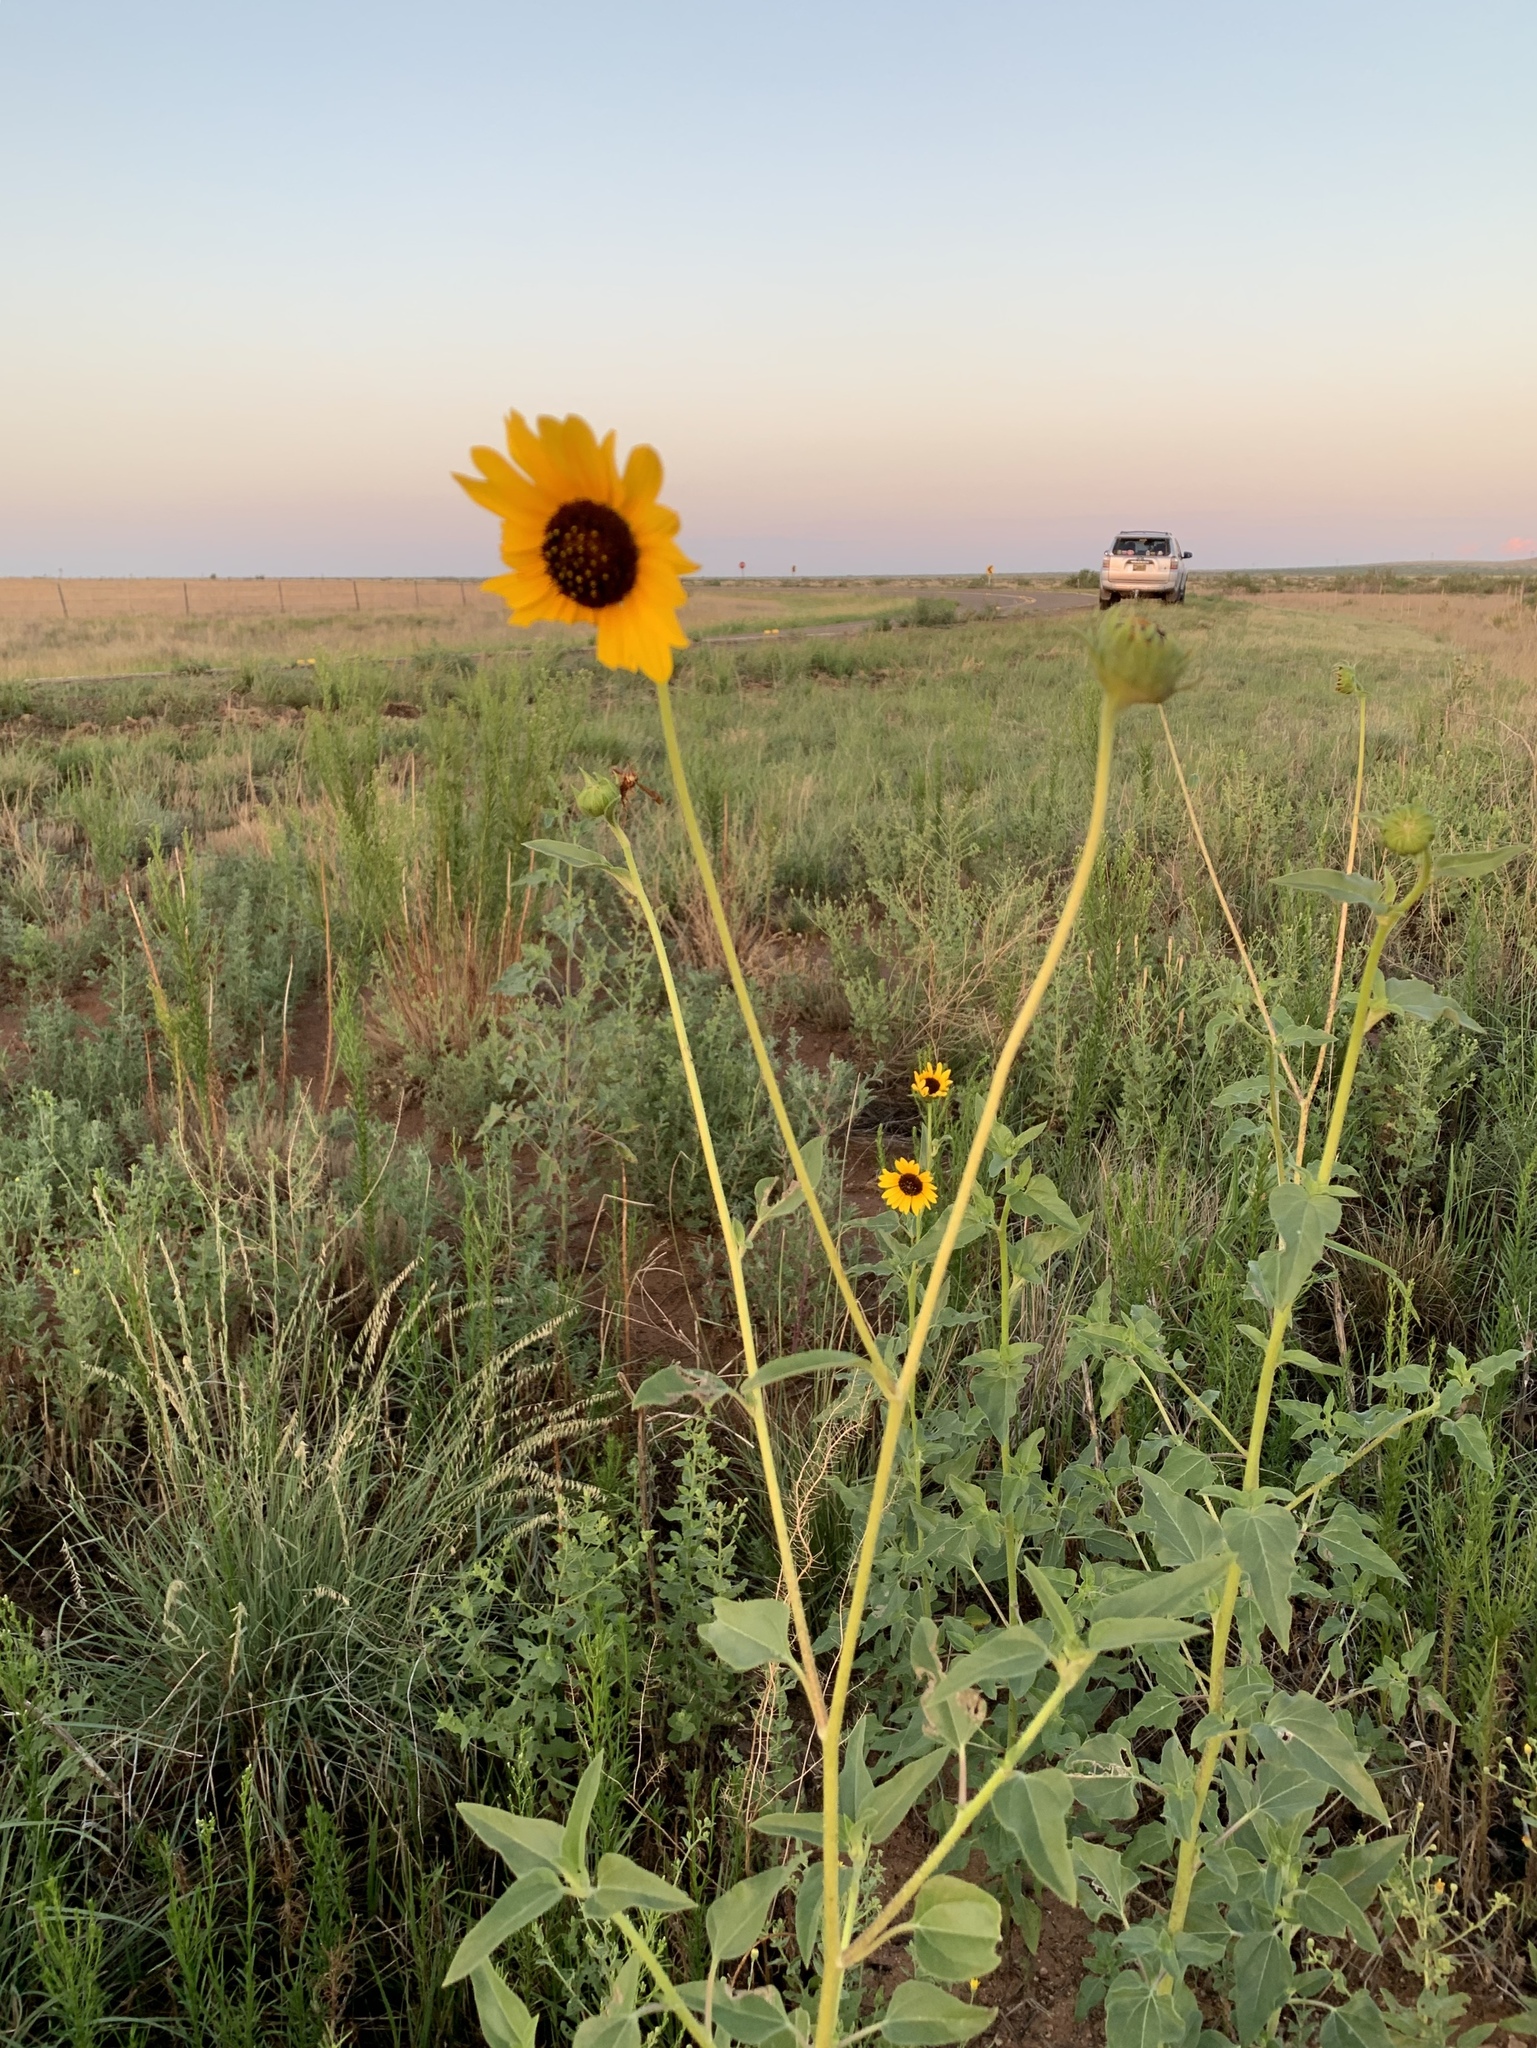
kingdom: Plantae
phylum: Tracheophyta
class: Magnoliopsida
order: Asterales
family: Asteraceae
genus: Helianthus
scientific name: Helianthus petiolaris
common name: Lesser sunflower
